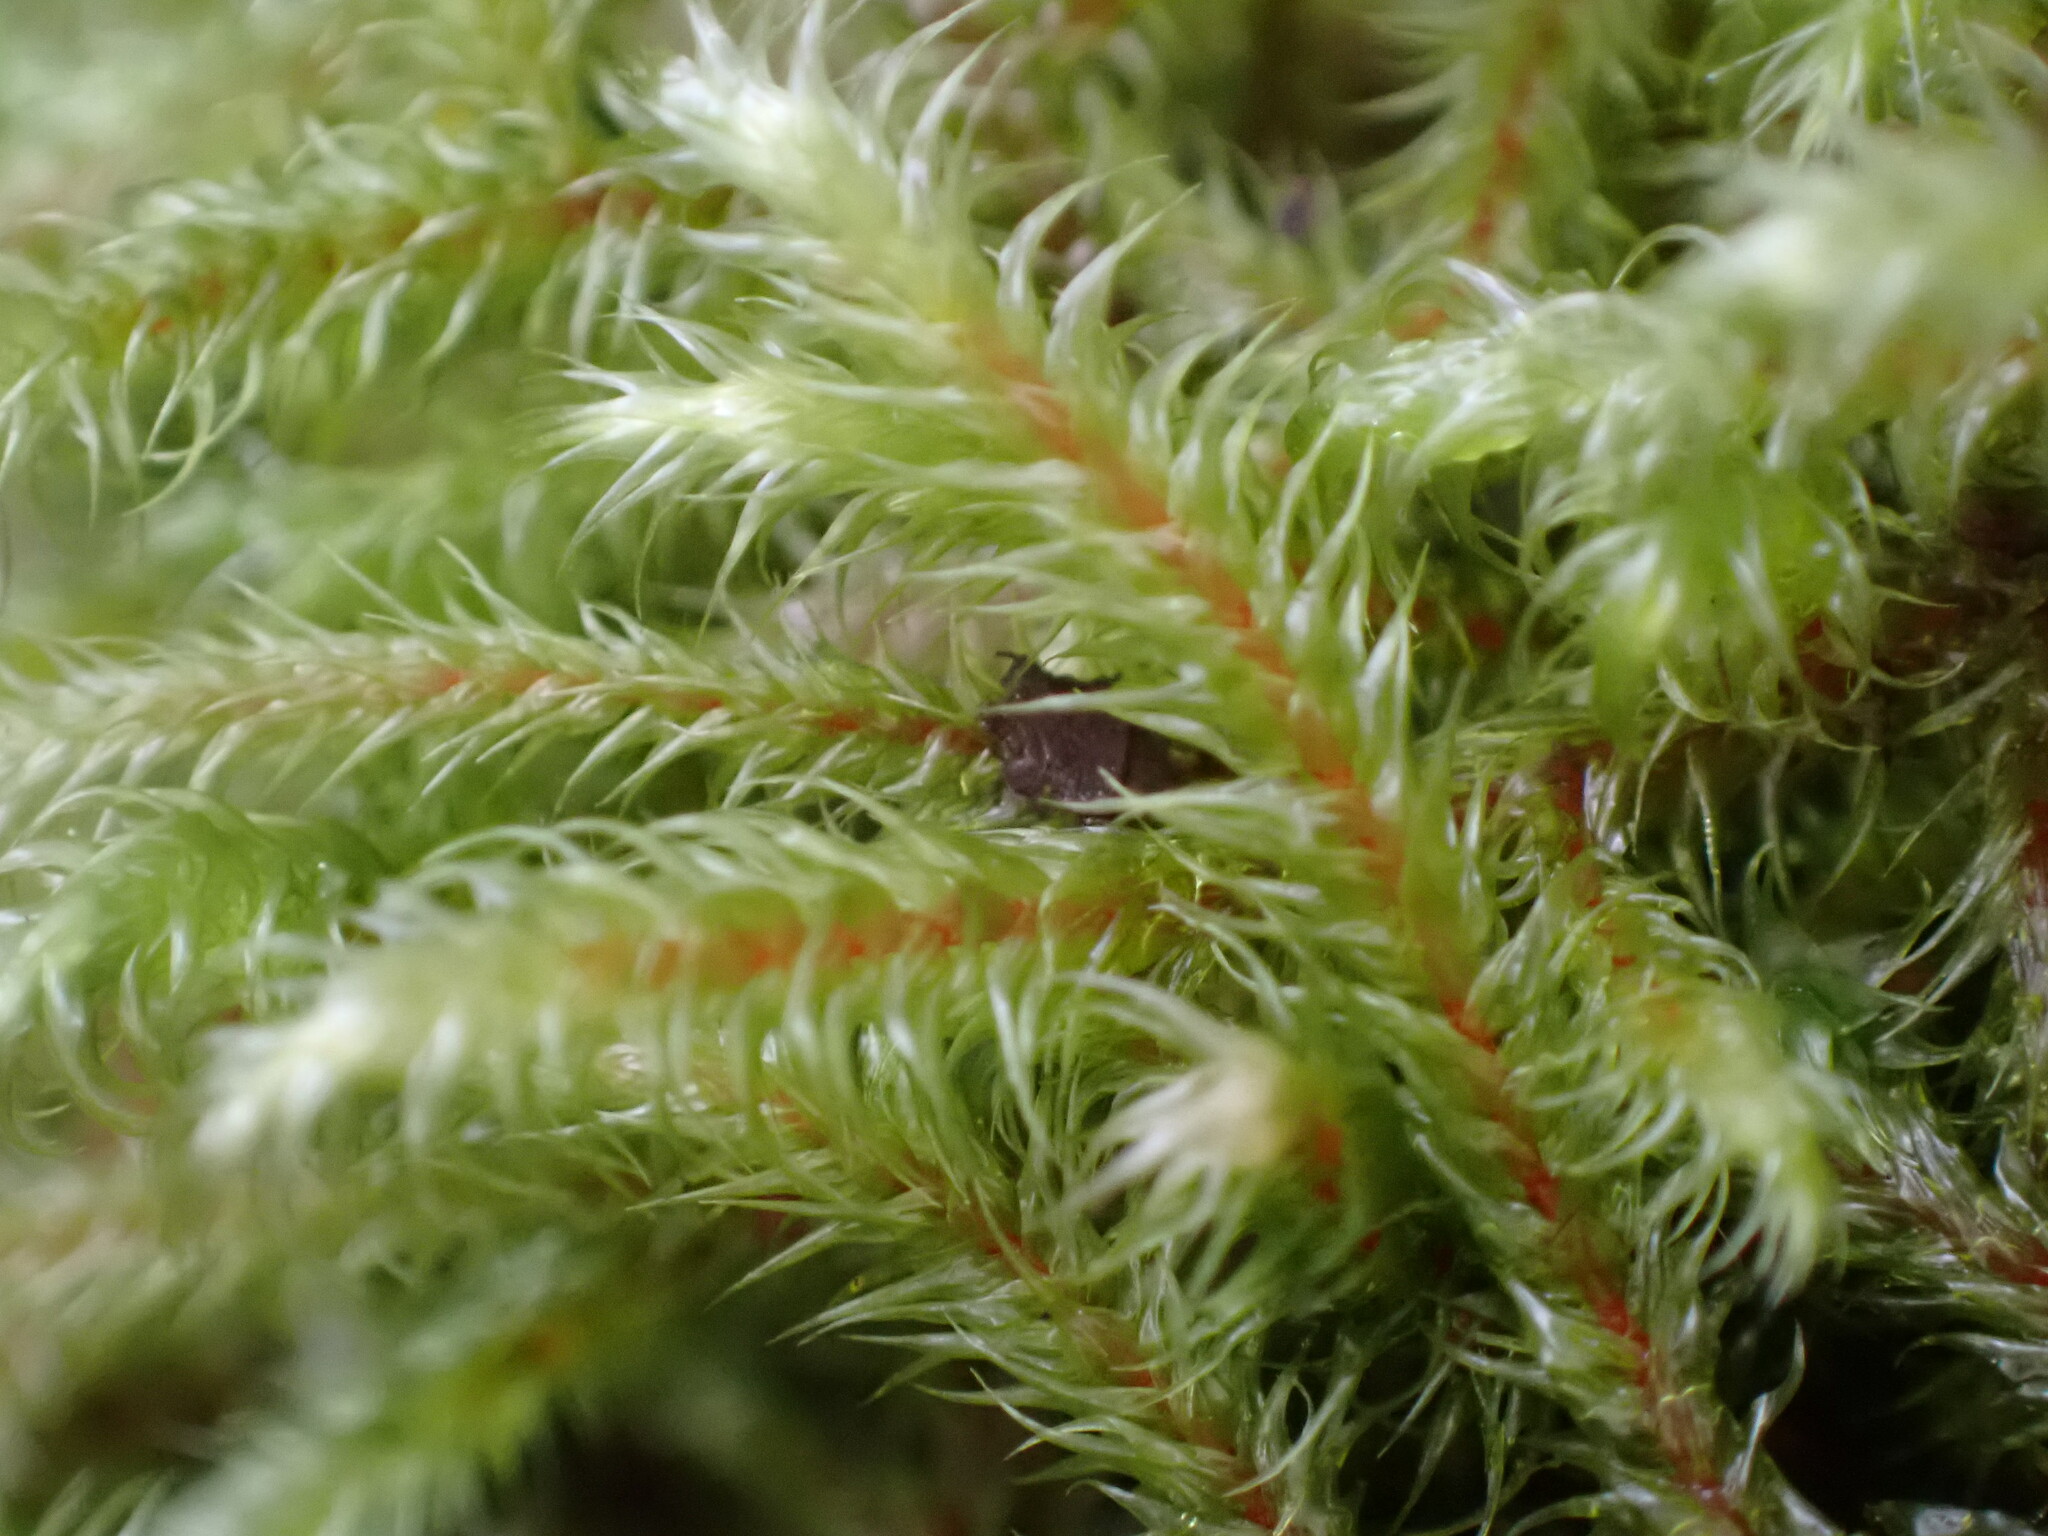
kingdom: Plantae
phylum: Bryophyta
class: Bryopsida
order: Hypnales
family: Hylocomiaceae
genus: Rhytidiadelphus
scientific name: Rhytidiadelphus loreus
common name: Lanky moss
